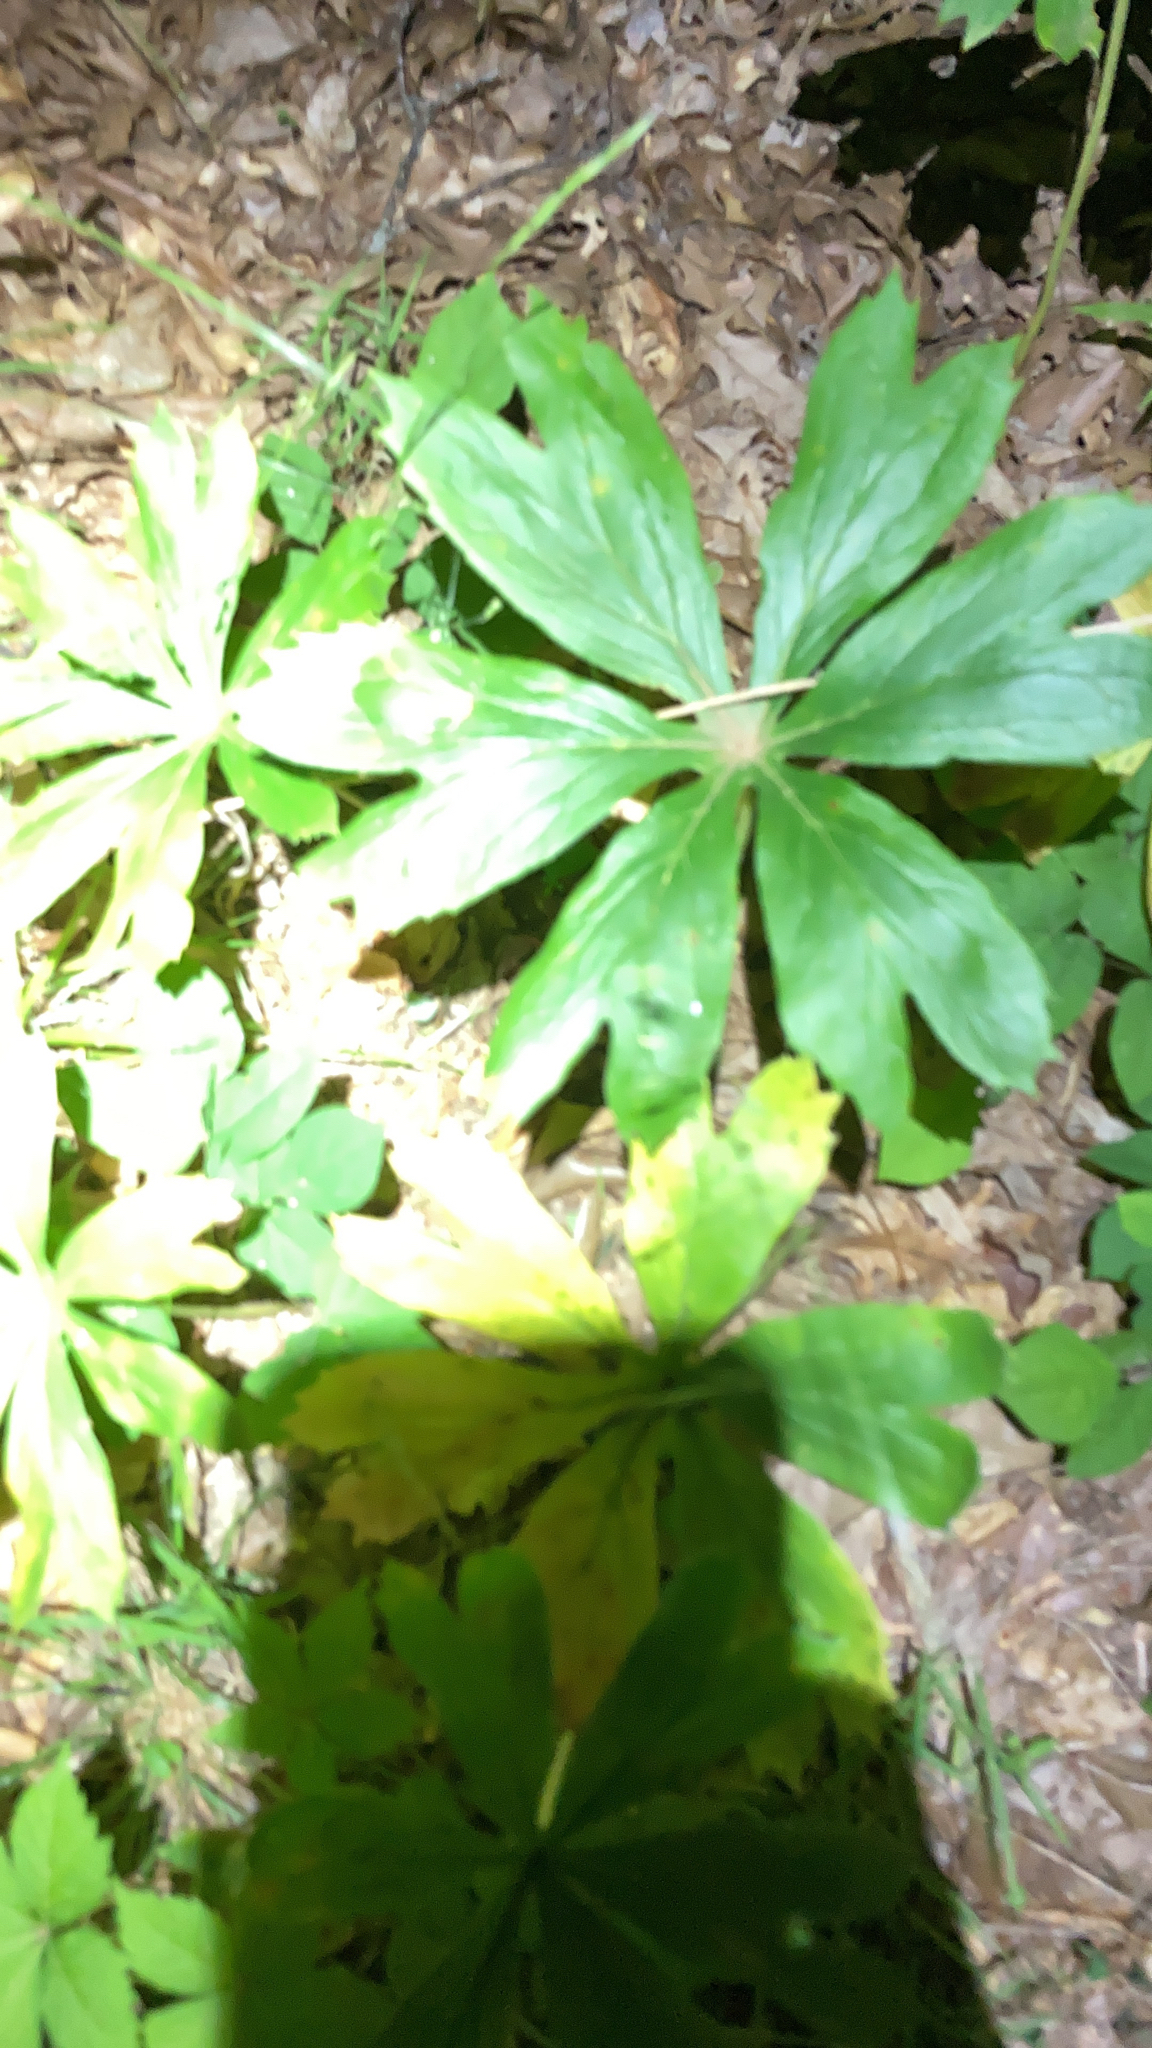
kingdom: Plantae
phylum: Tracheophyta
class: Magnoliopsida
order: Ranunculales
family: Berberidaceae
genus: Podophyllum
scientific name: Podophyllum peltatum
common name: Wild mandrake
